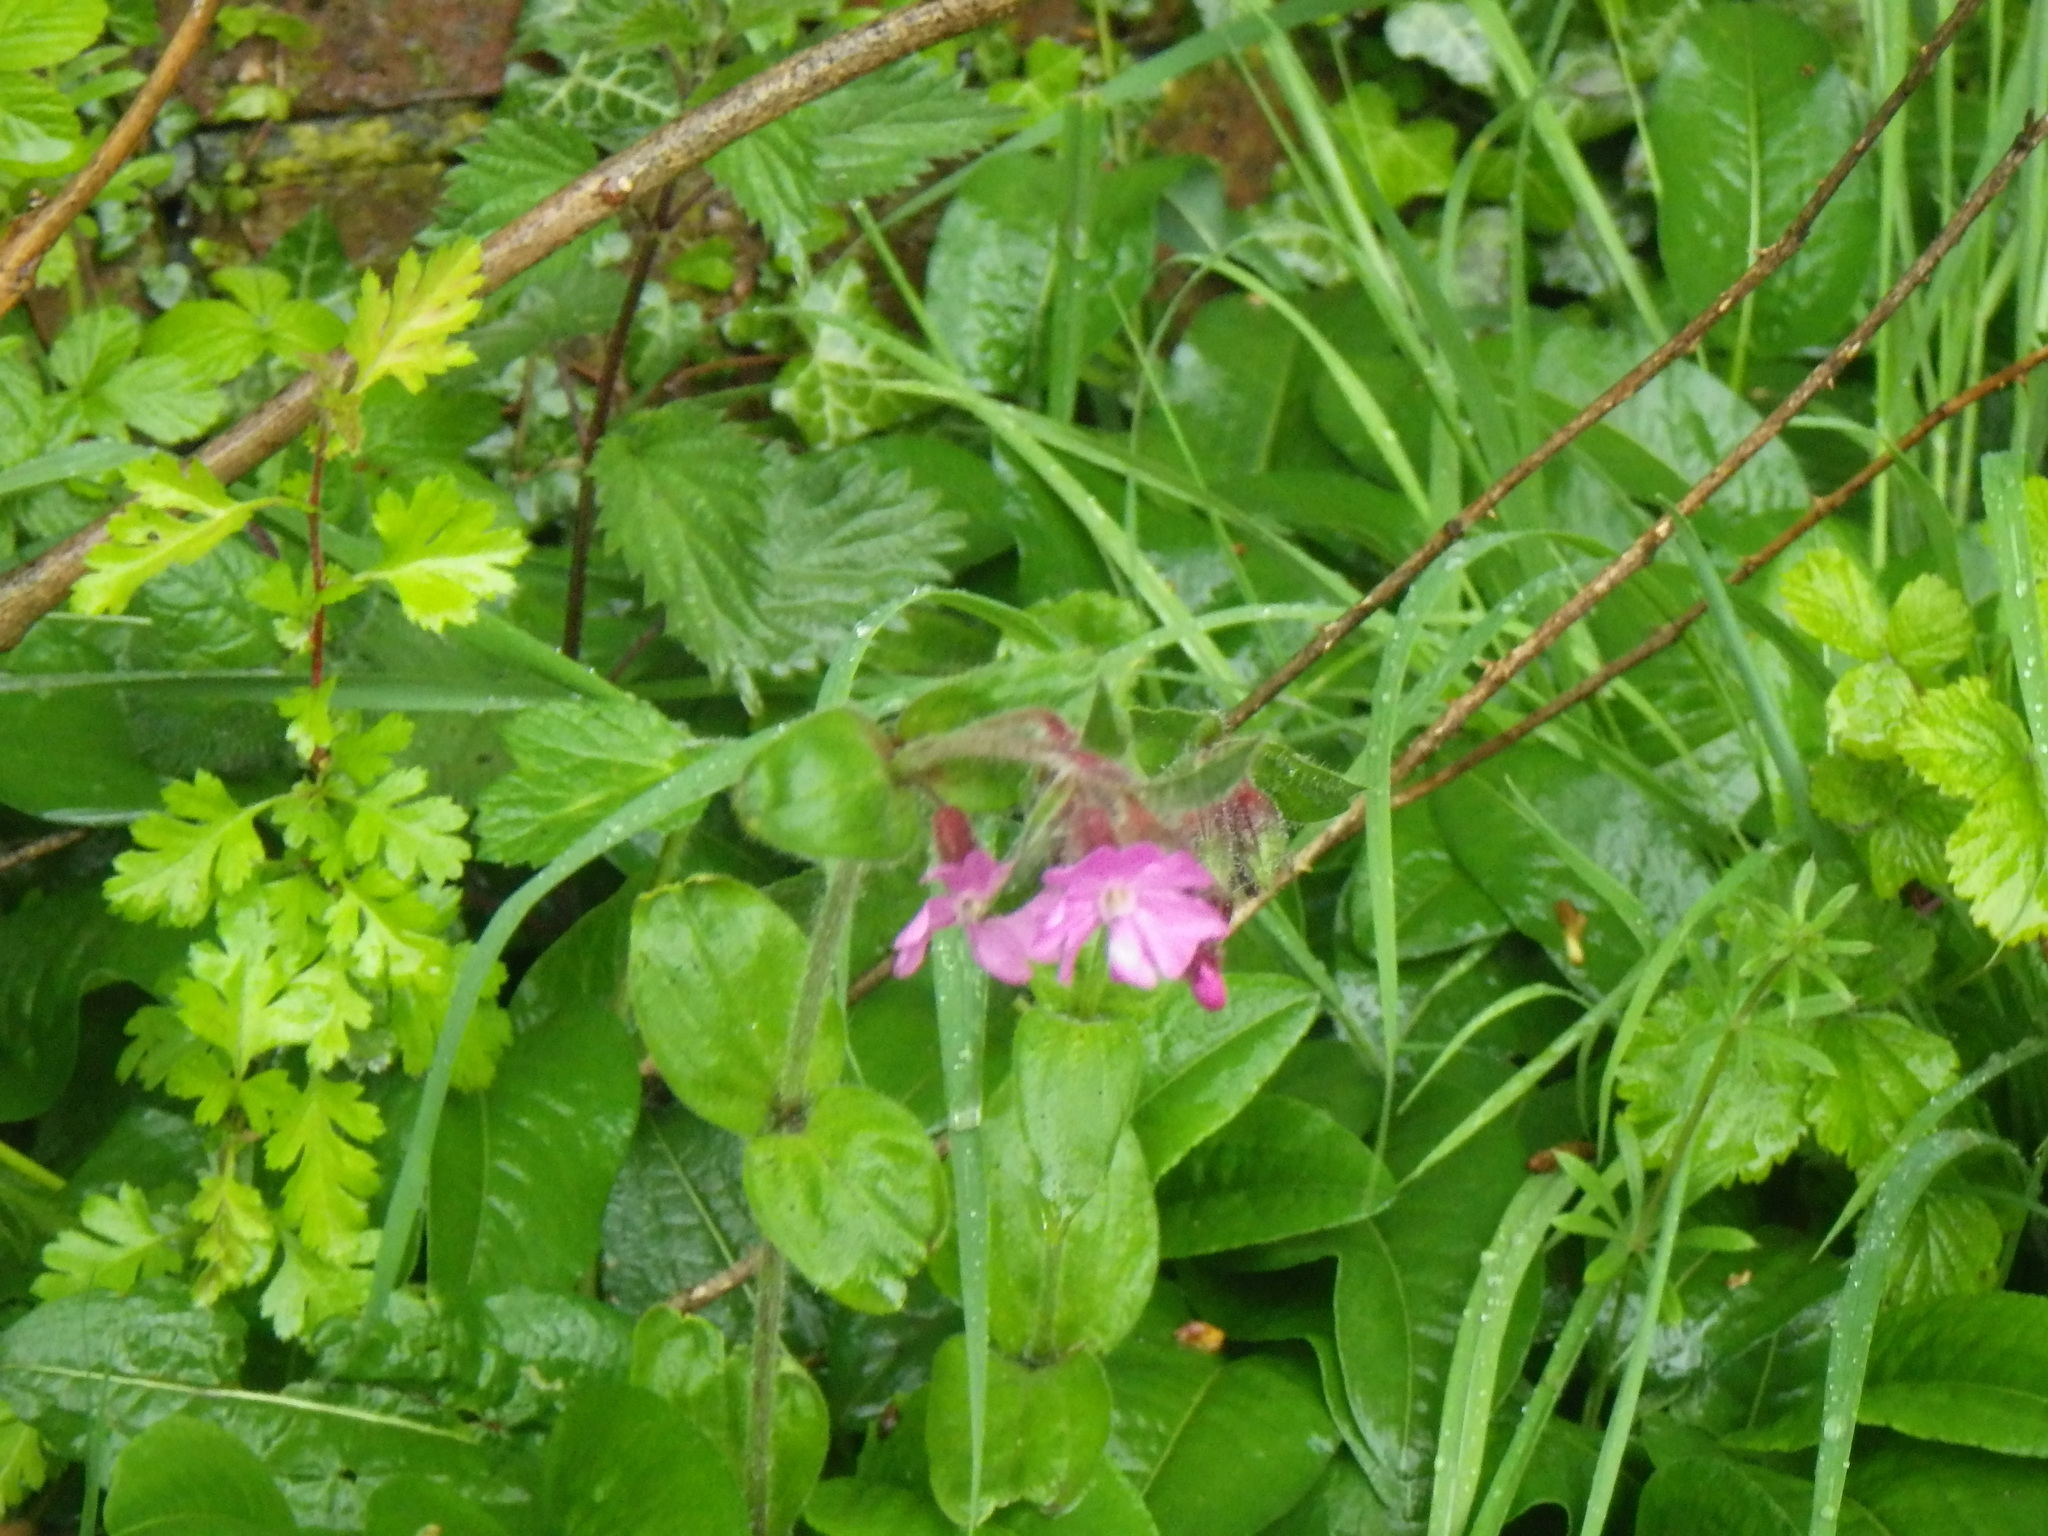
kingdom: Plantae
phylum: Tracheophyta
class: Magnoliopsida
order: Caryophyllales
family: Caryophyllaceae
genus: Silene
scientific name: Silene dioica
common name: Red campion
